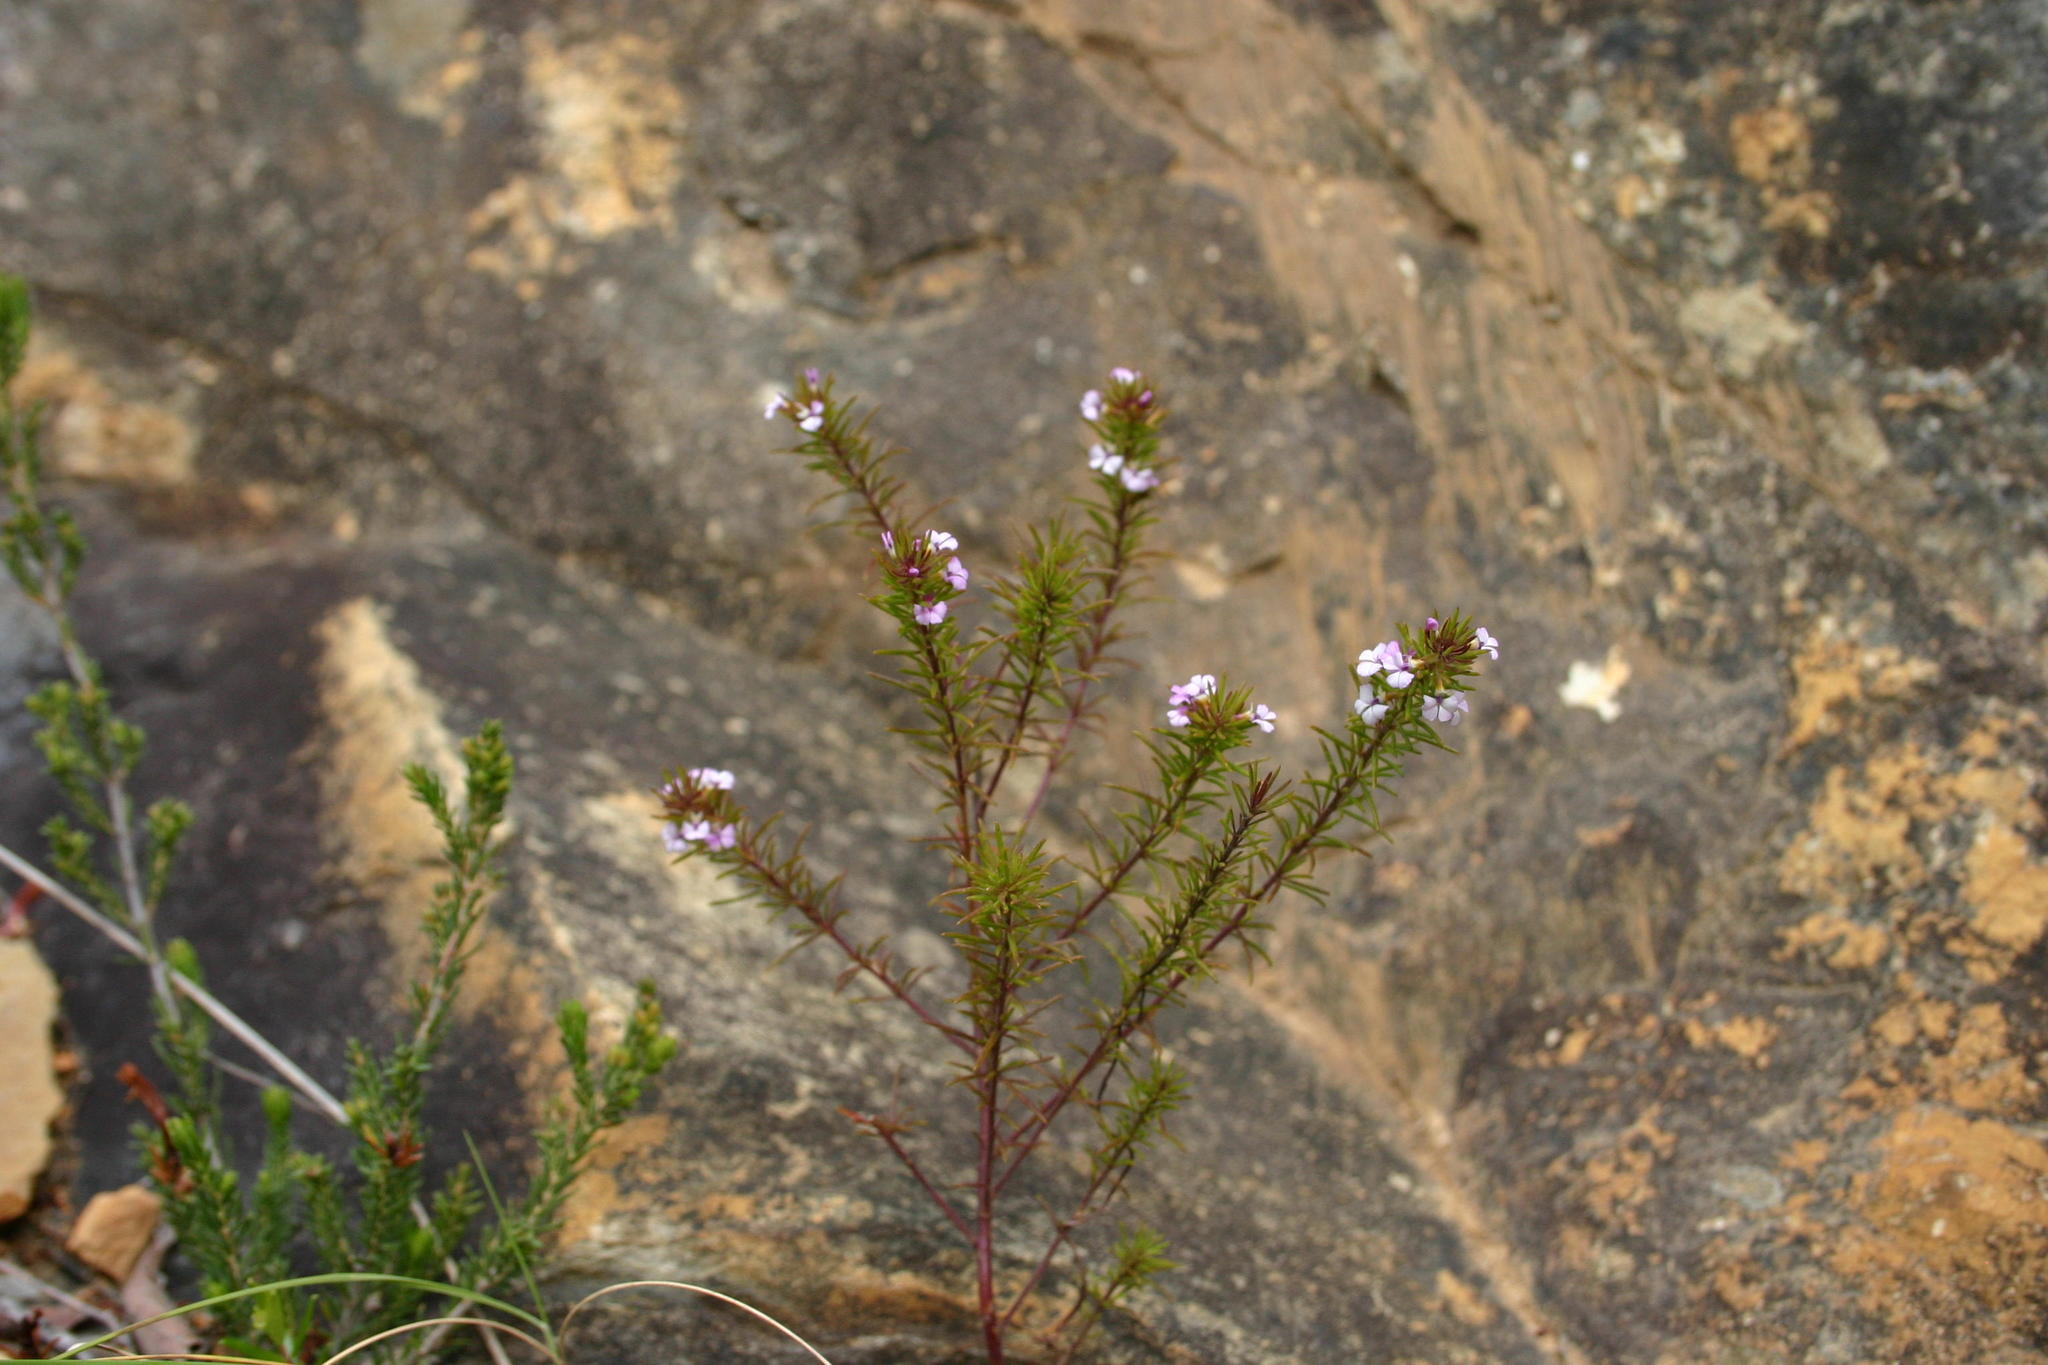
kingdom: Plantae
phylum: Tracheophyta
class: Magnoliopsida
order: Fabales
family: Polygalaceae
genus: Muraltia
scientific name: Muraltia ericoides
